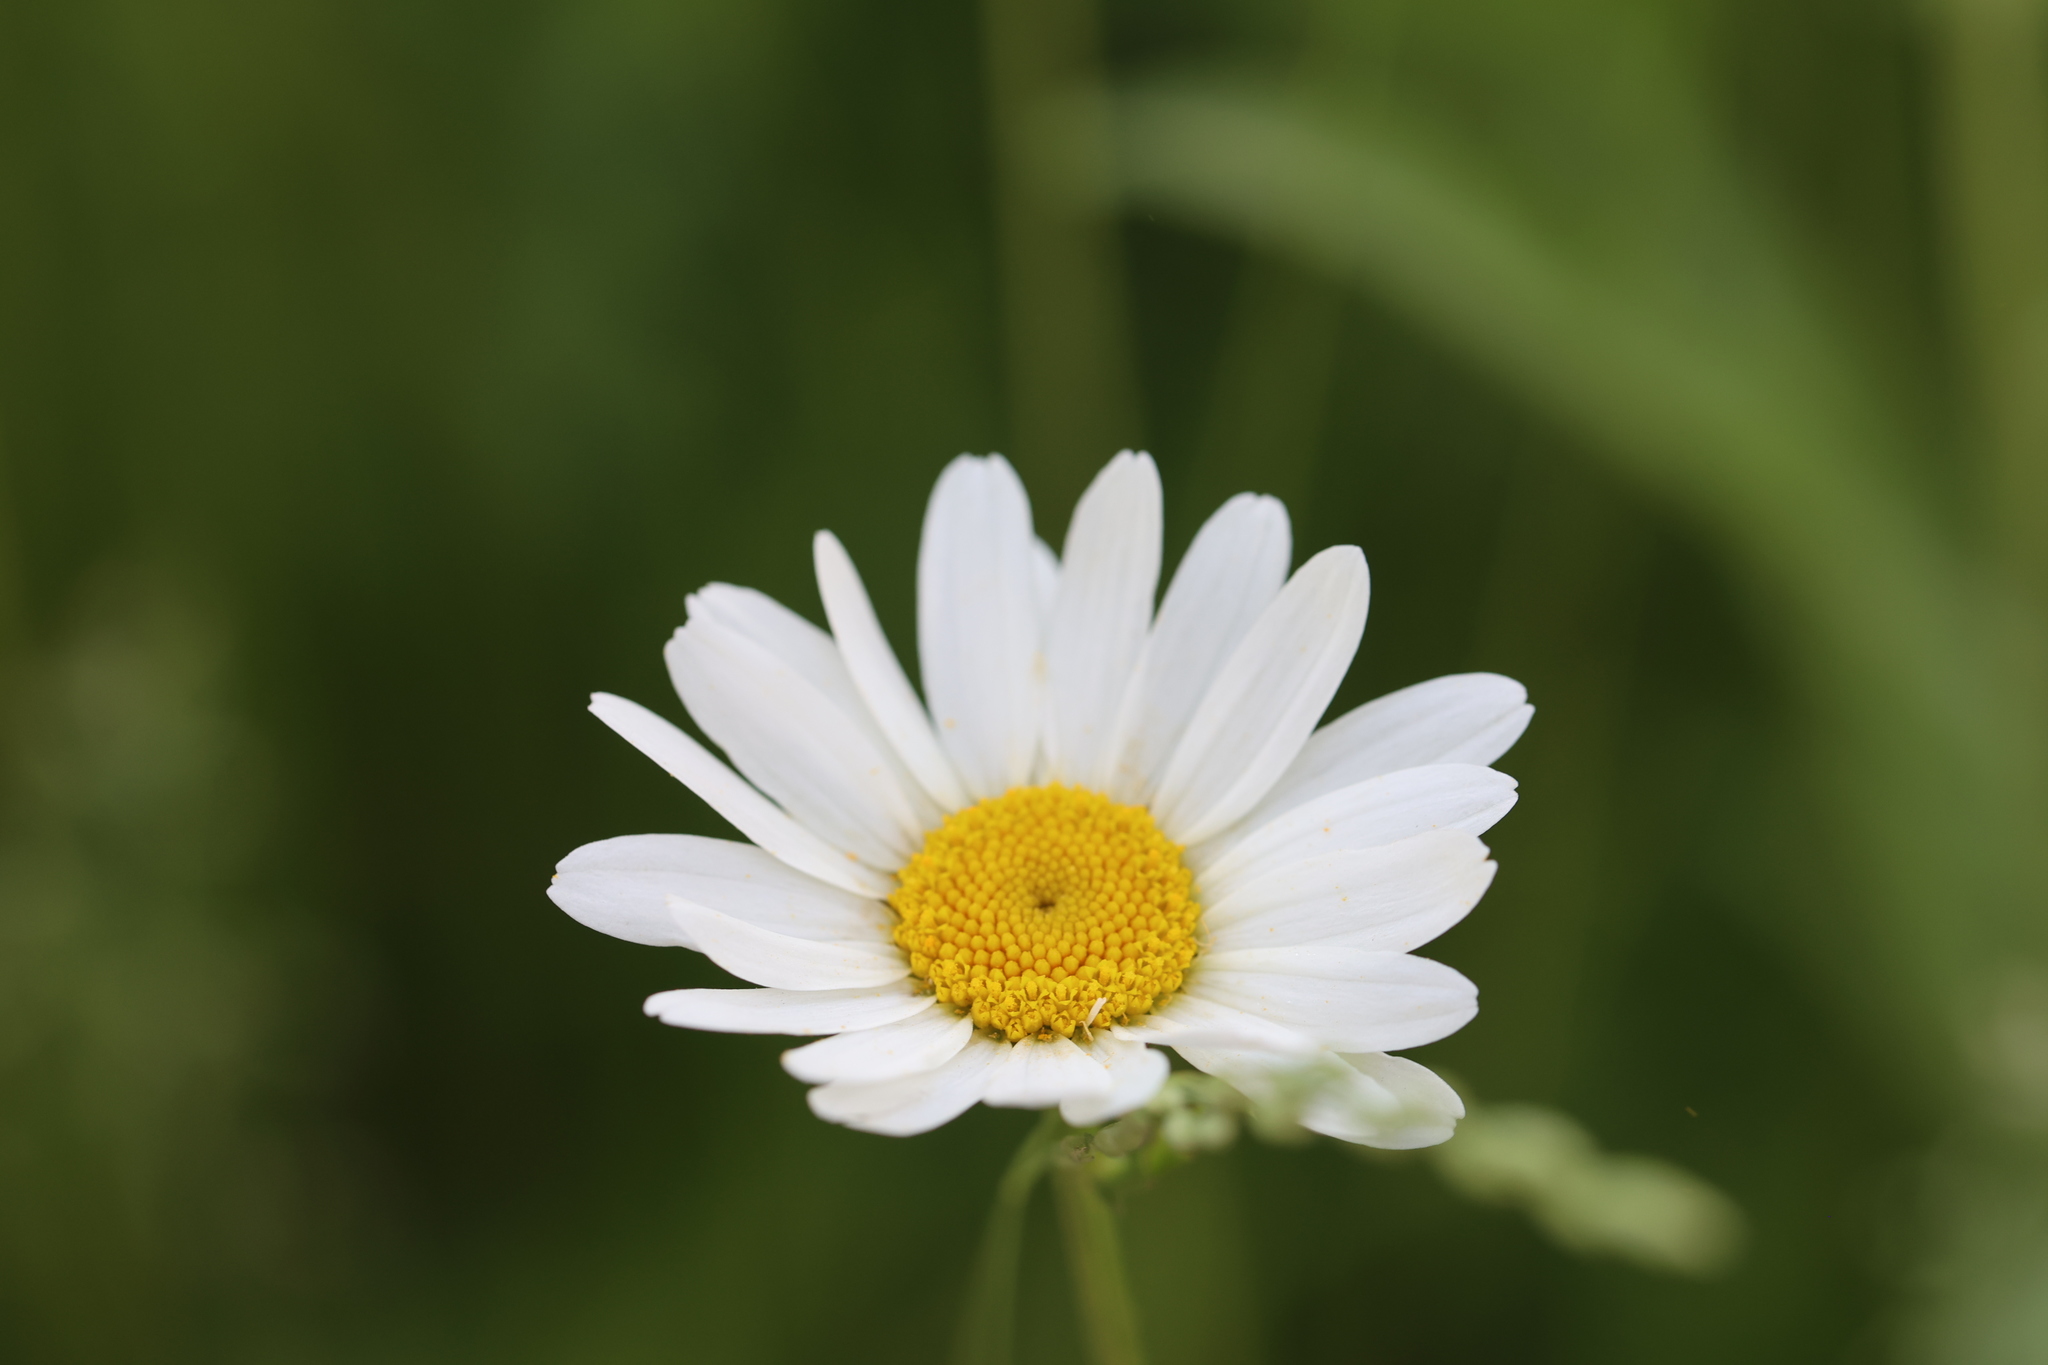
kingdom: Plantae
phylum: Tracheophyta
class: Magnoliopsida
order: Asterales
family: Asteraceae
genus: Leucanthemum
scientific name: Leucanthemum vulgare
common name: Oxeye daisy
